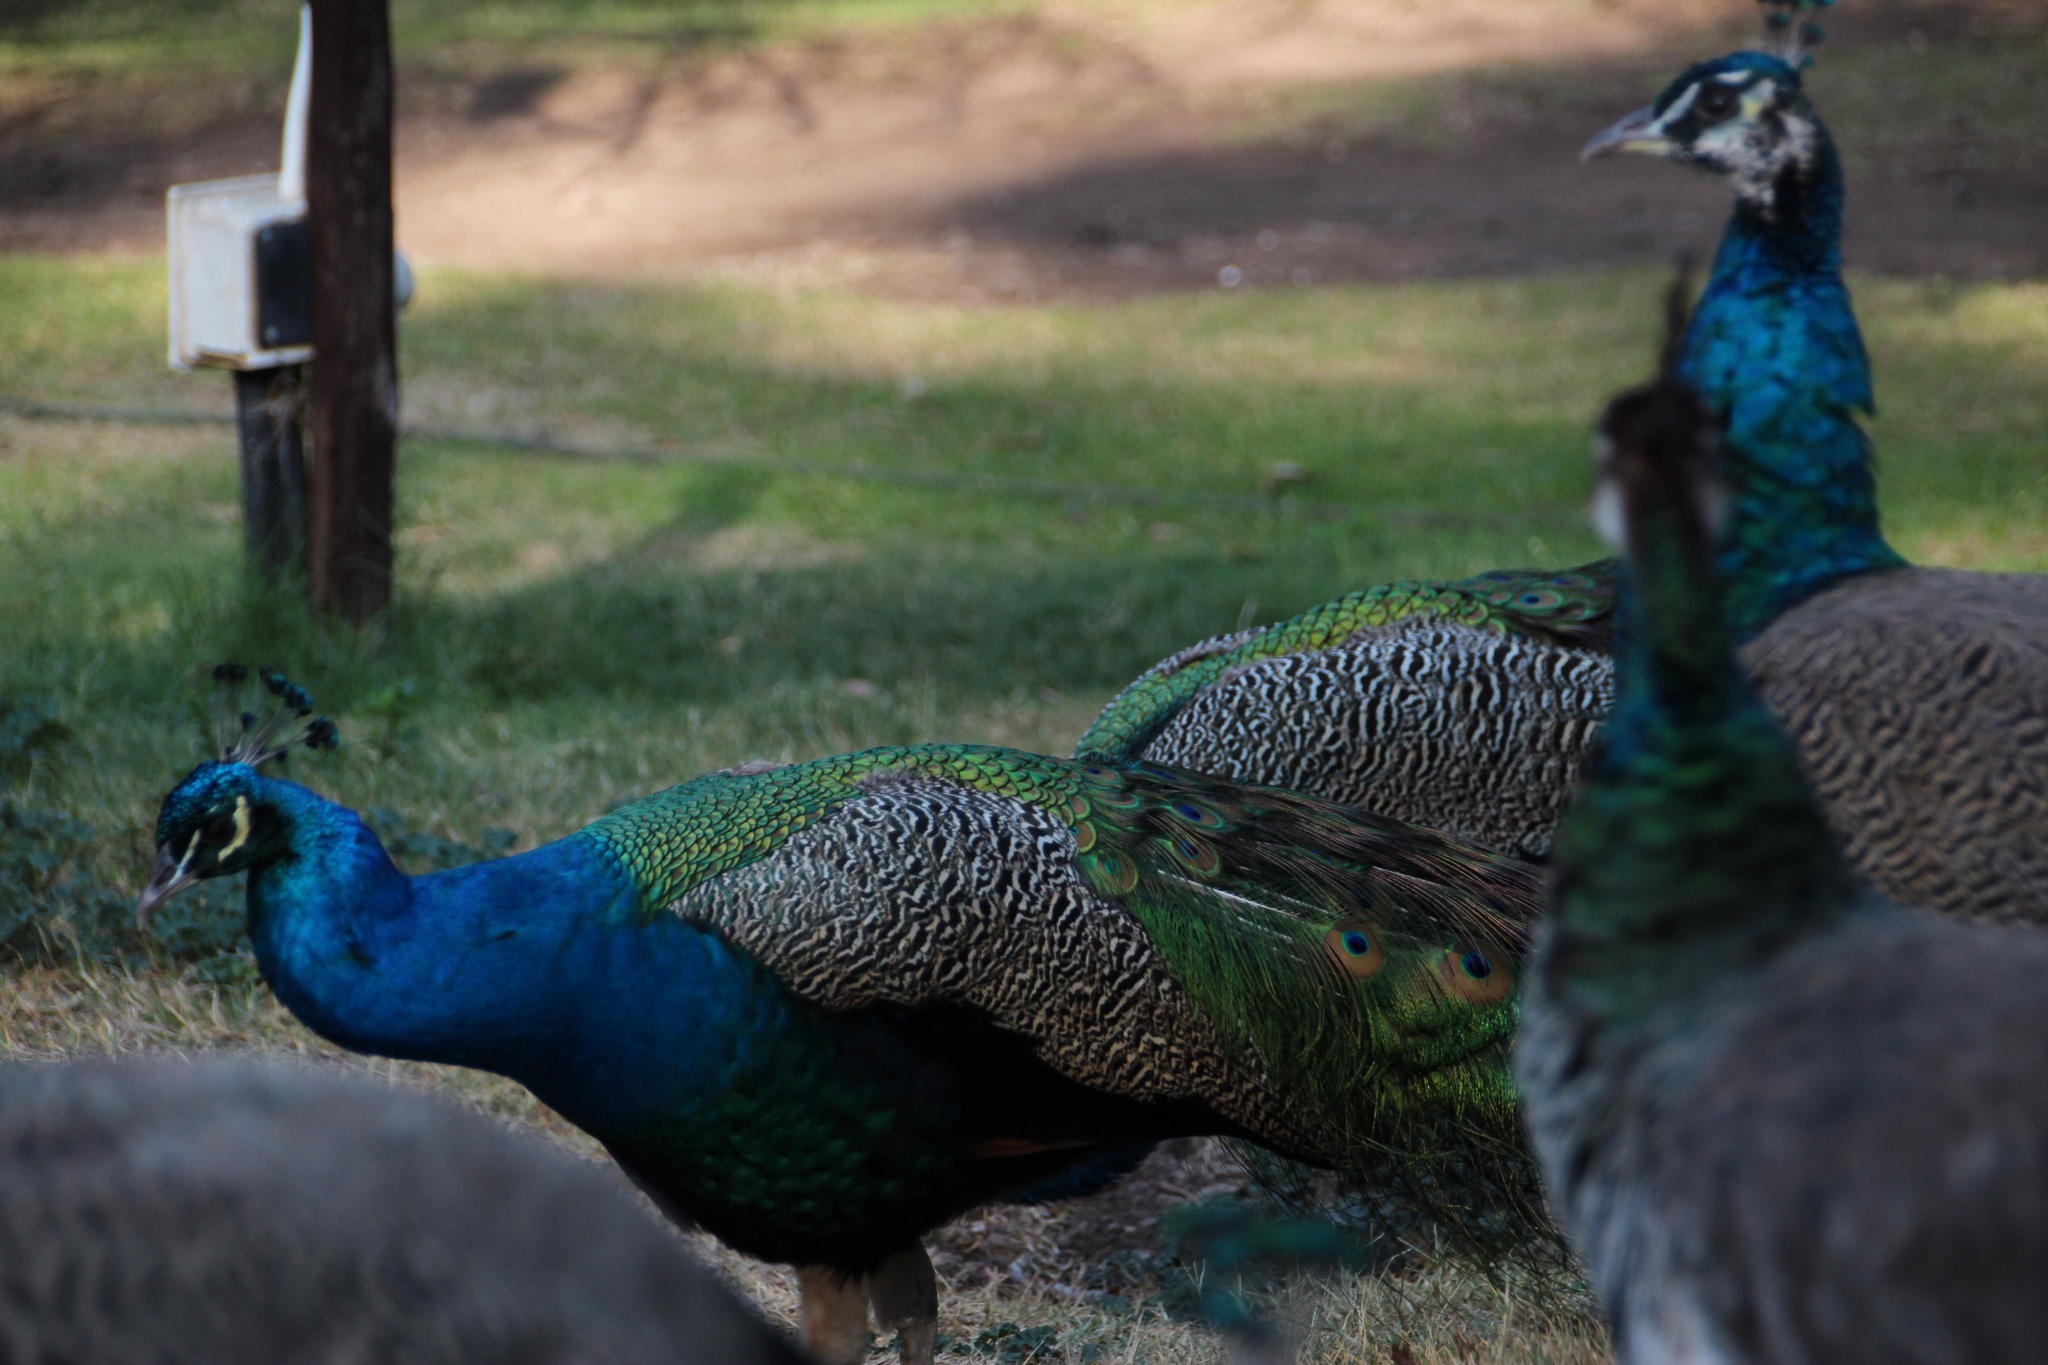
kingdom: Animalia
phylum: Chordata
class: Aves
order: Galliformes
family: Phasianidae
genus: Pavo
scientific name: Pavo cristatus
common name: Indian peafowl
